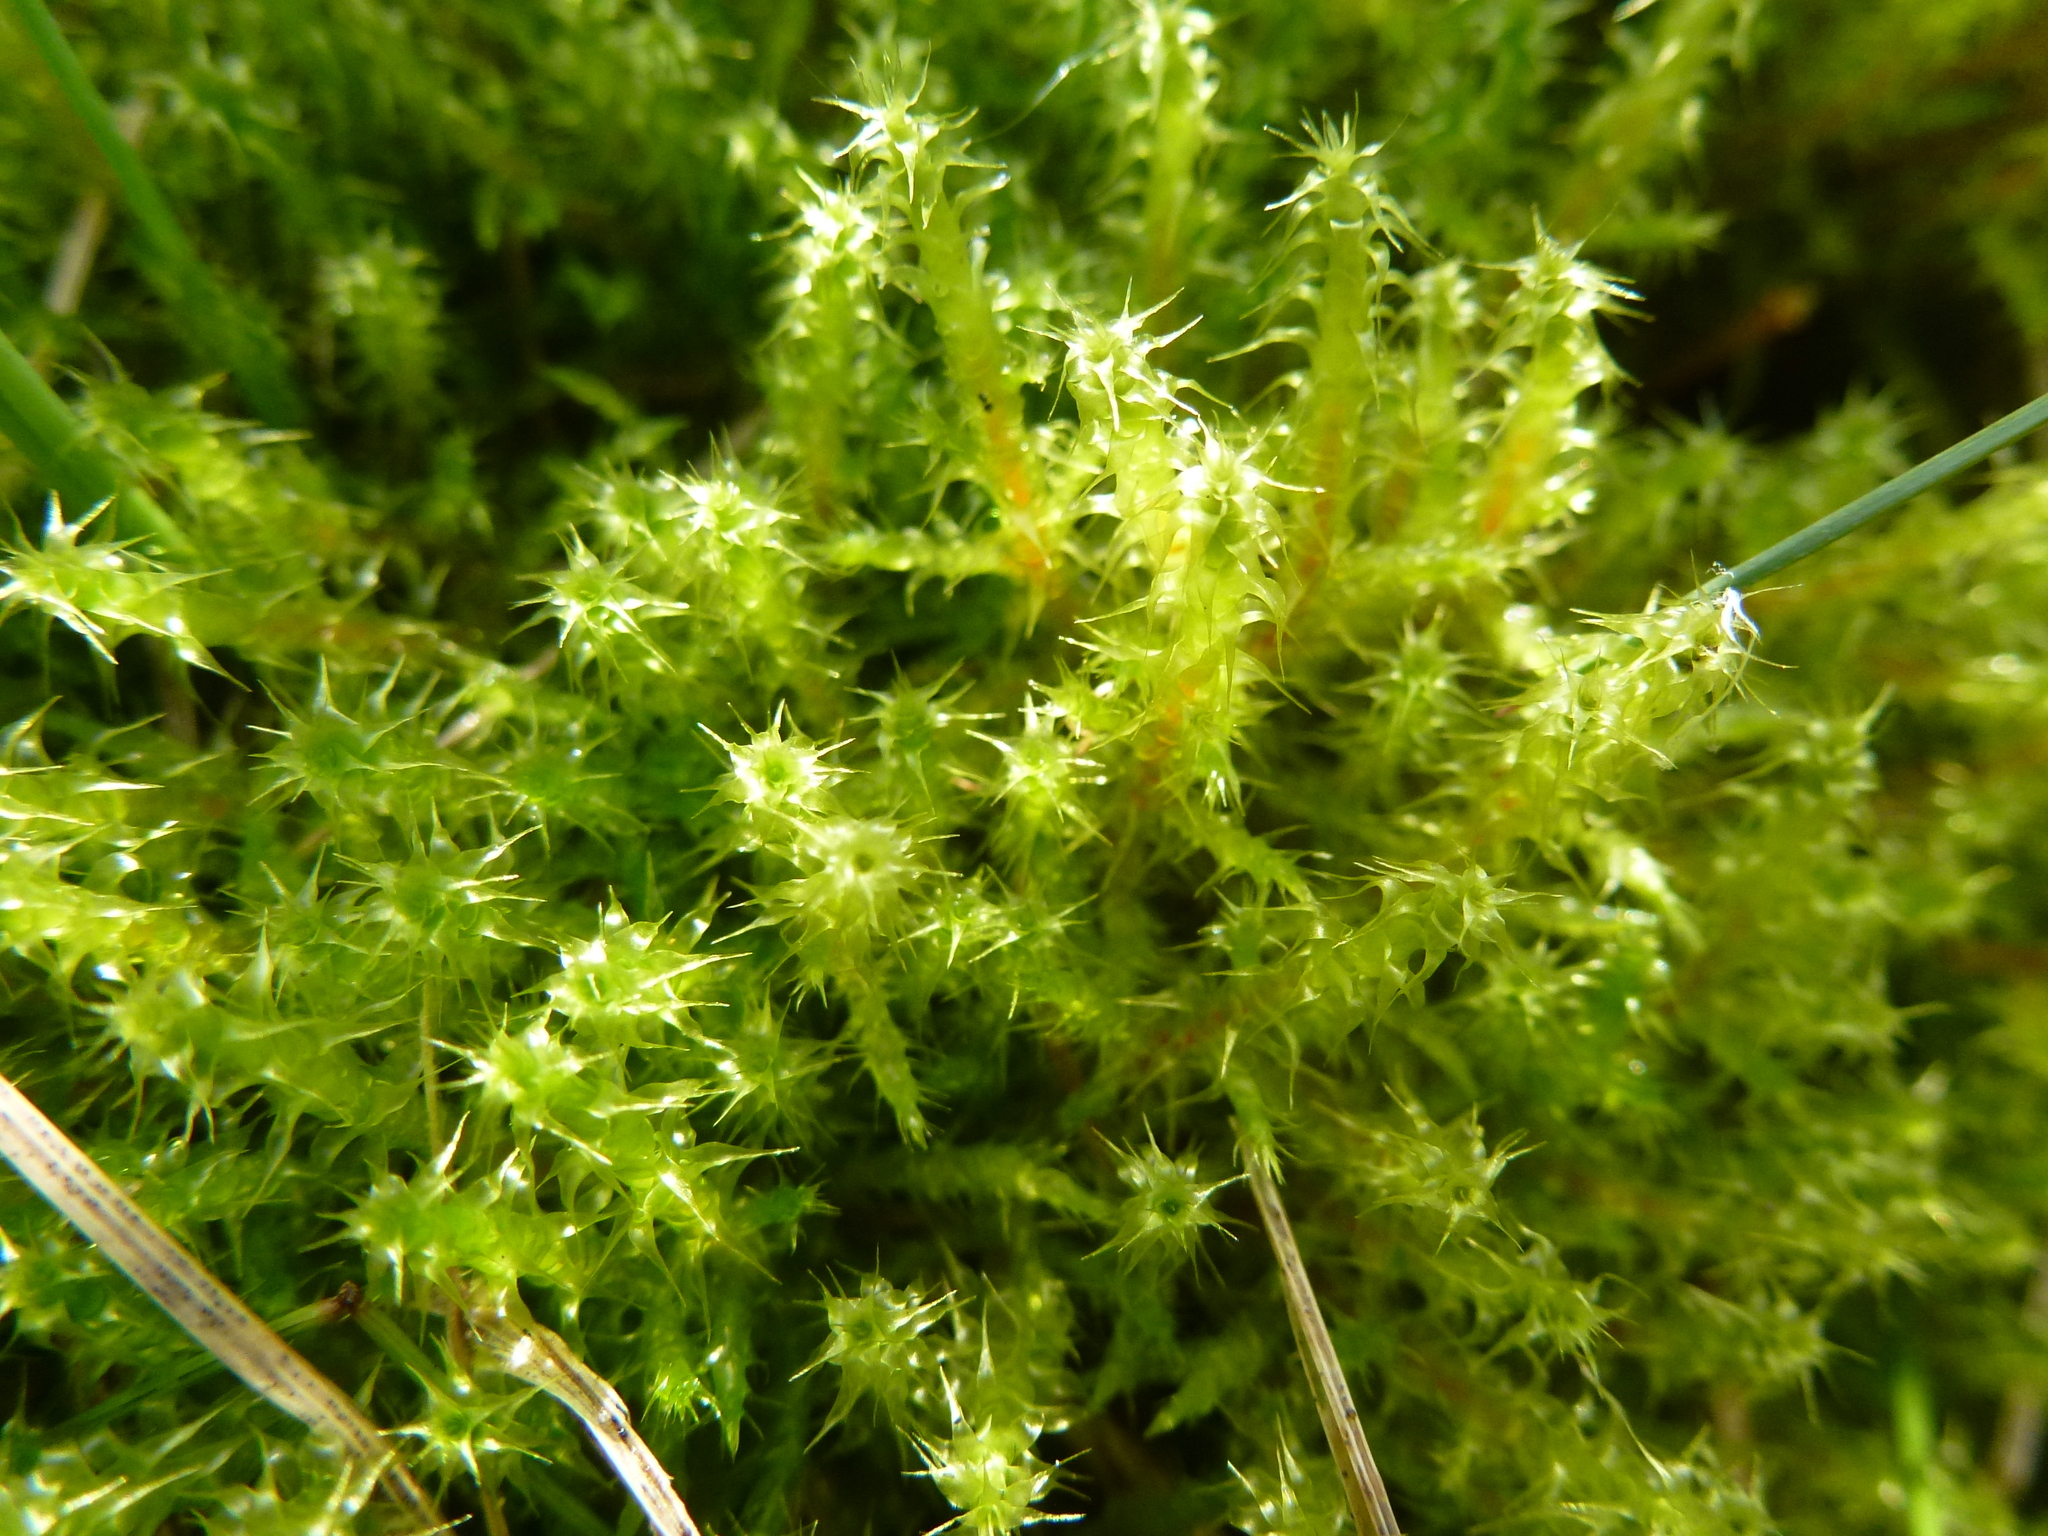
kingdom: Plantae
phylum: Bryophyta
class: Bryopsida
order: Hypnales
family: Hylocomiaceae
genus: Rhytidiadelphus
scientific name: Rhytidiadelphus squarrosus
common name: Springy turf-moss
